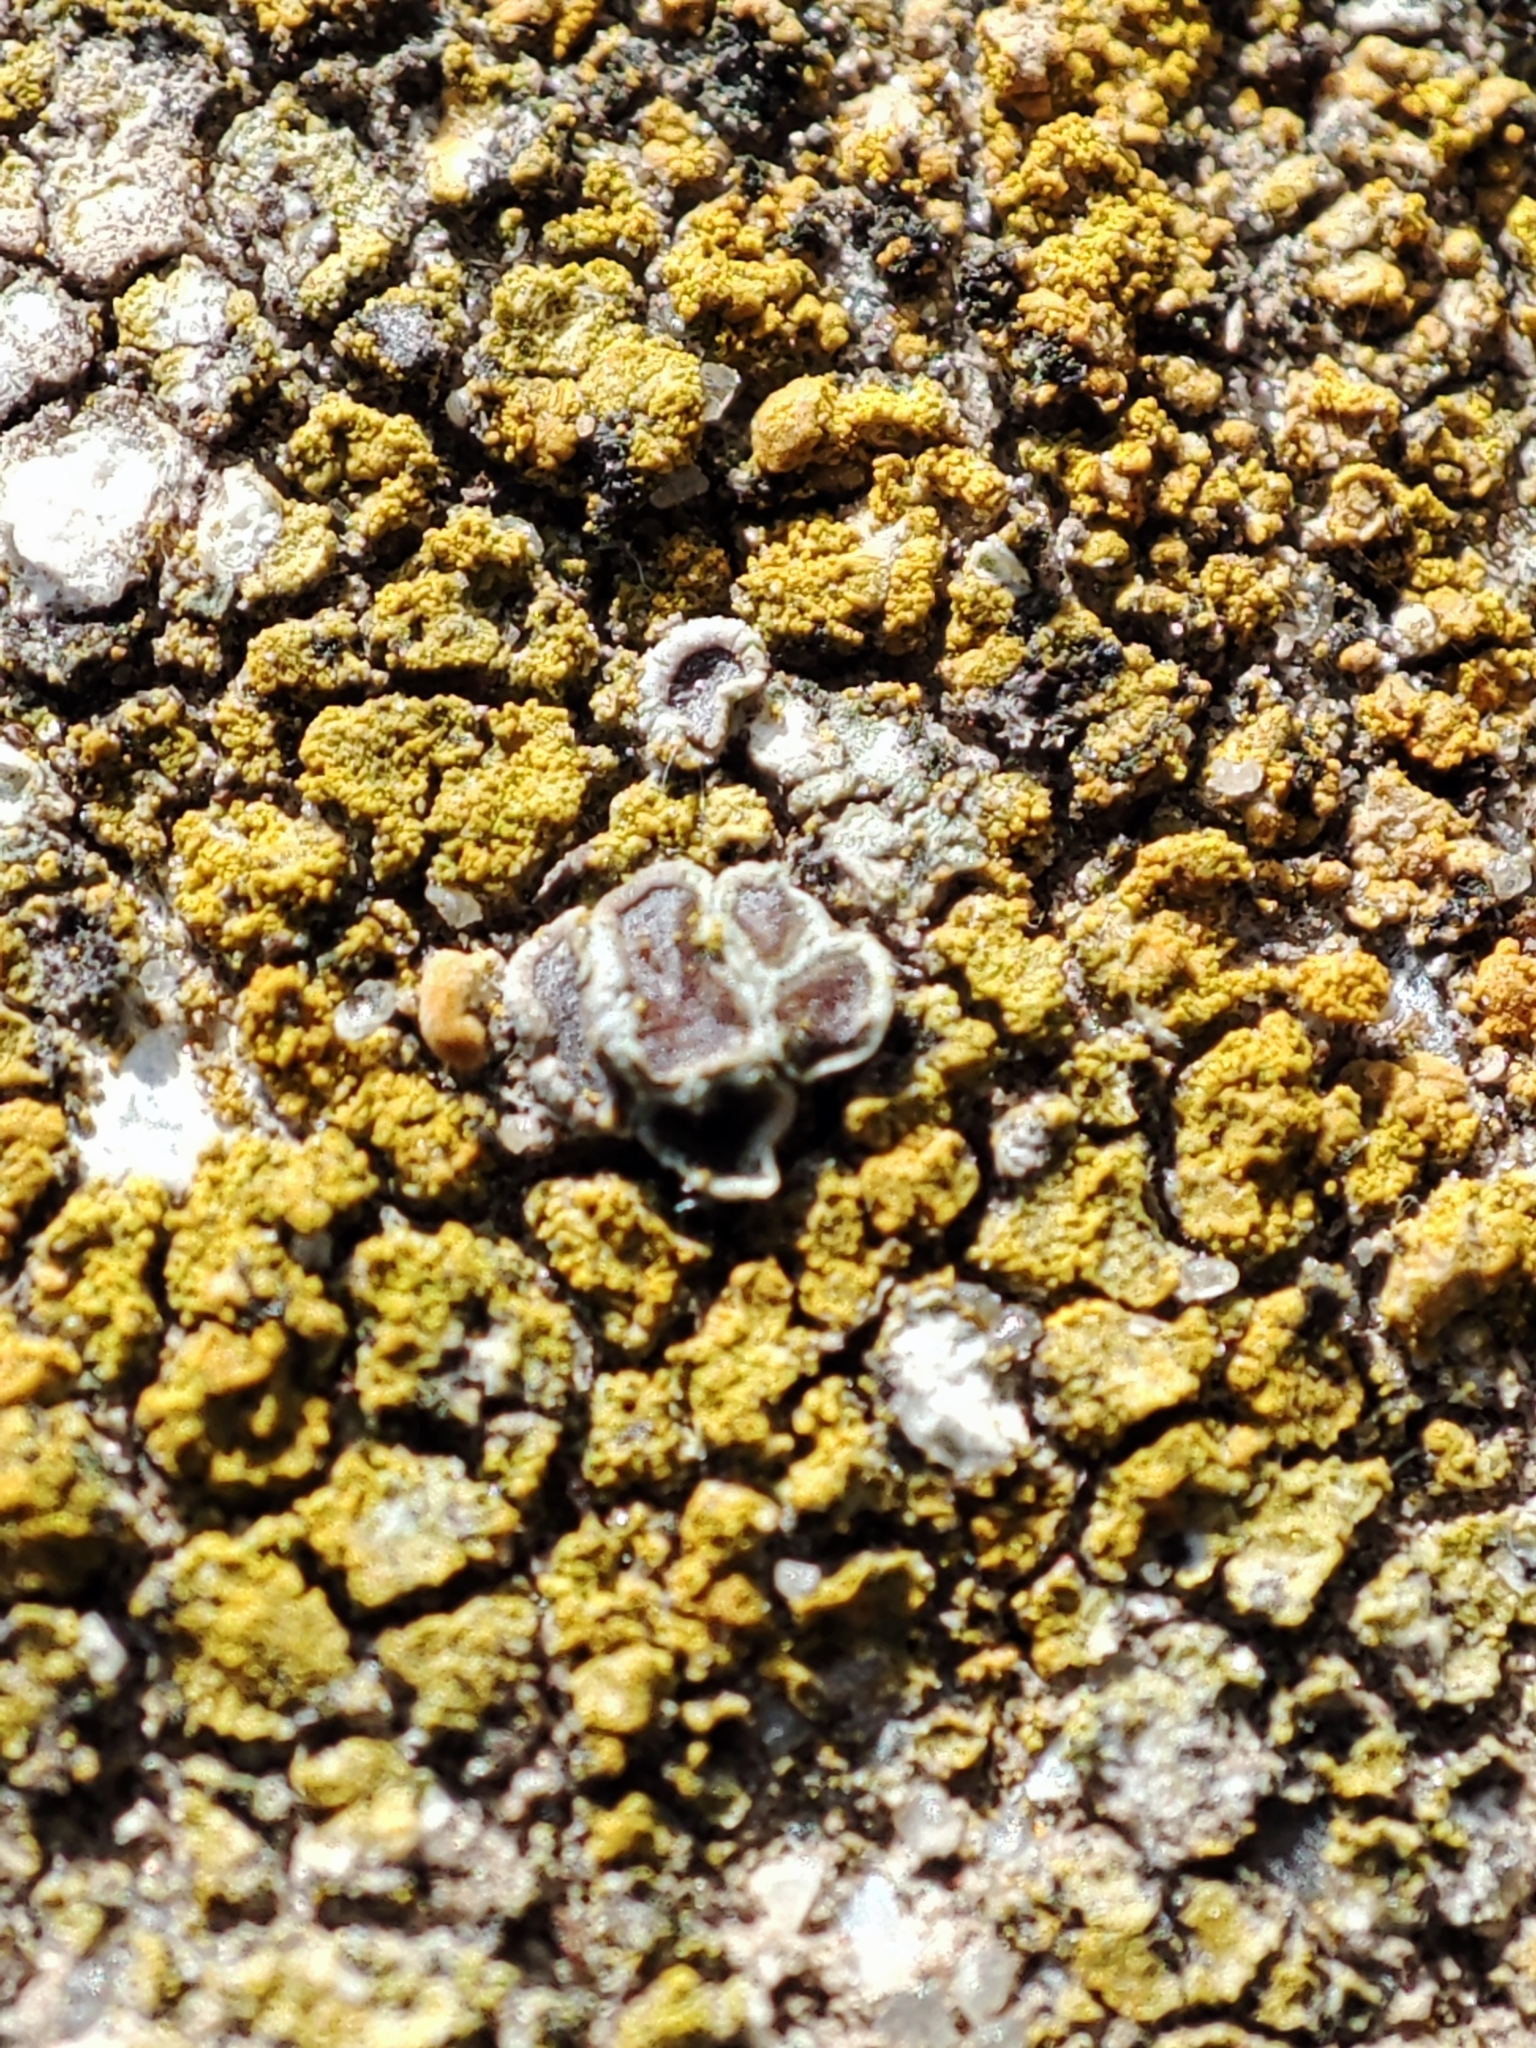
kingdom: Fungi
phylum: Ascomycota
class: Lecanoromycetes
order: Lecanorales
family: Lecanoraceae
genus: Polyozosia
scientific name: Polyozosia dispersa
